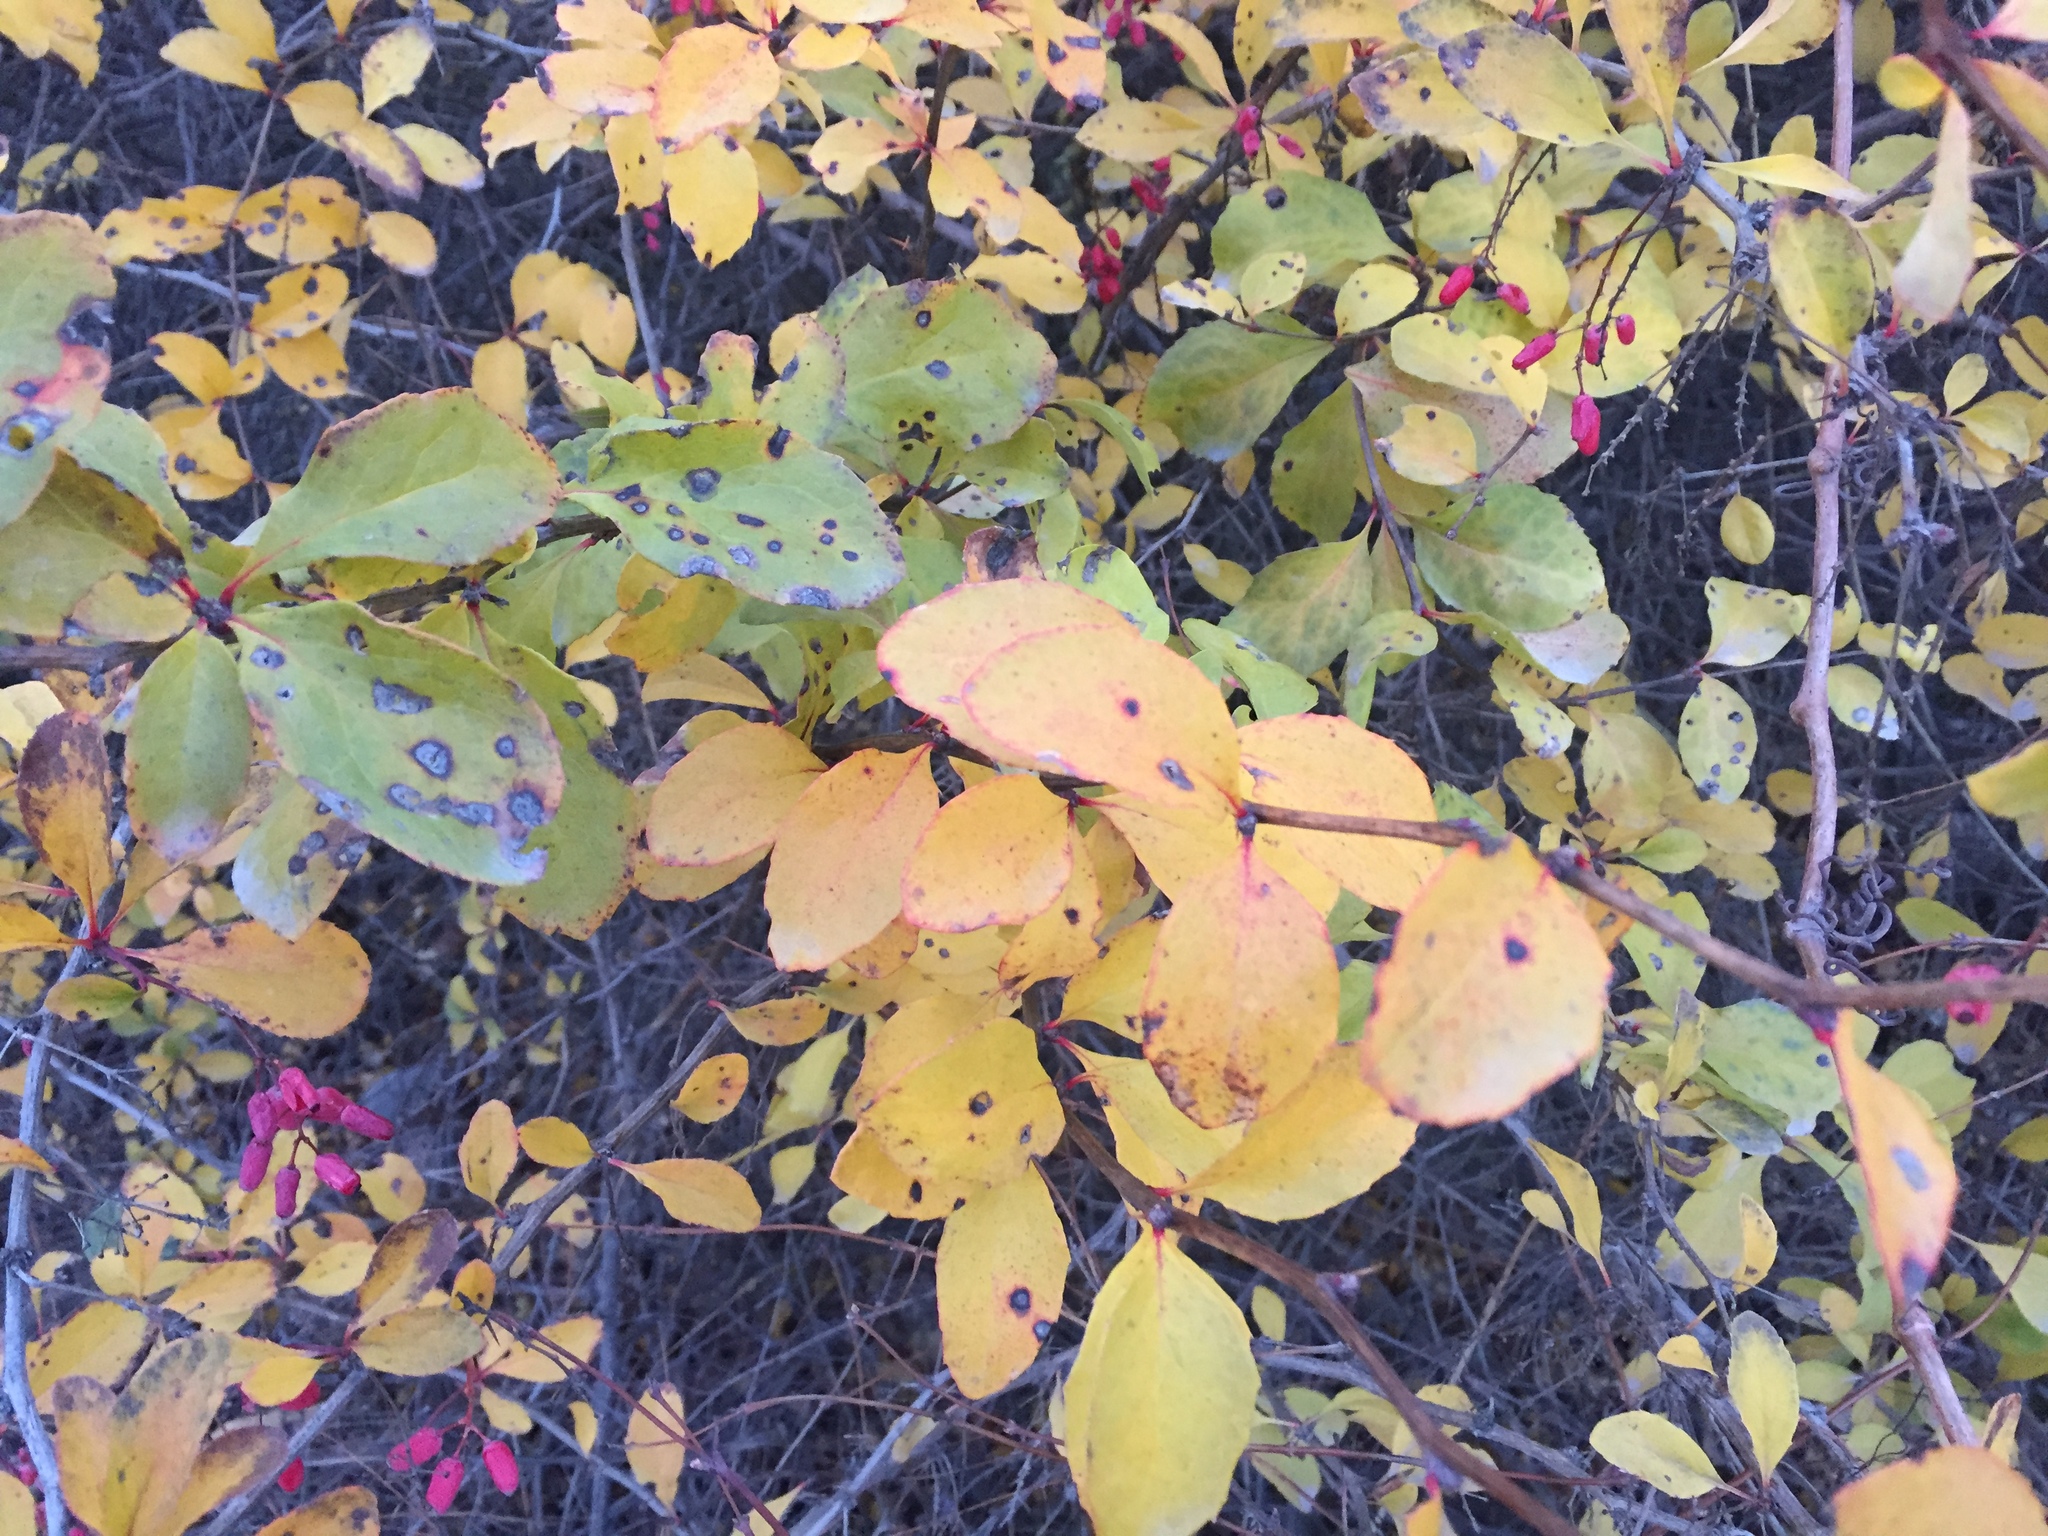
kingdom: Plantae
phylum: Tracheophyta
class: Magnoliopsida
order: Ranunculales
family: Berberidaceae
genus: Berberis
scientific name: Berberis vulgaris
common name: Barberry
